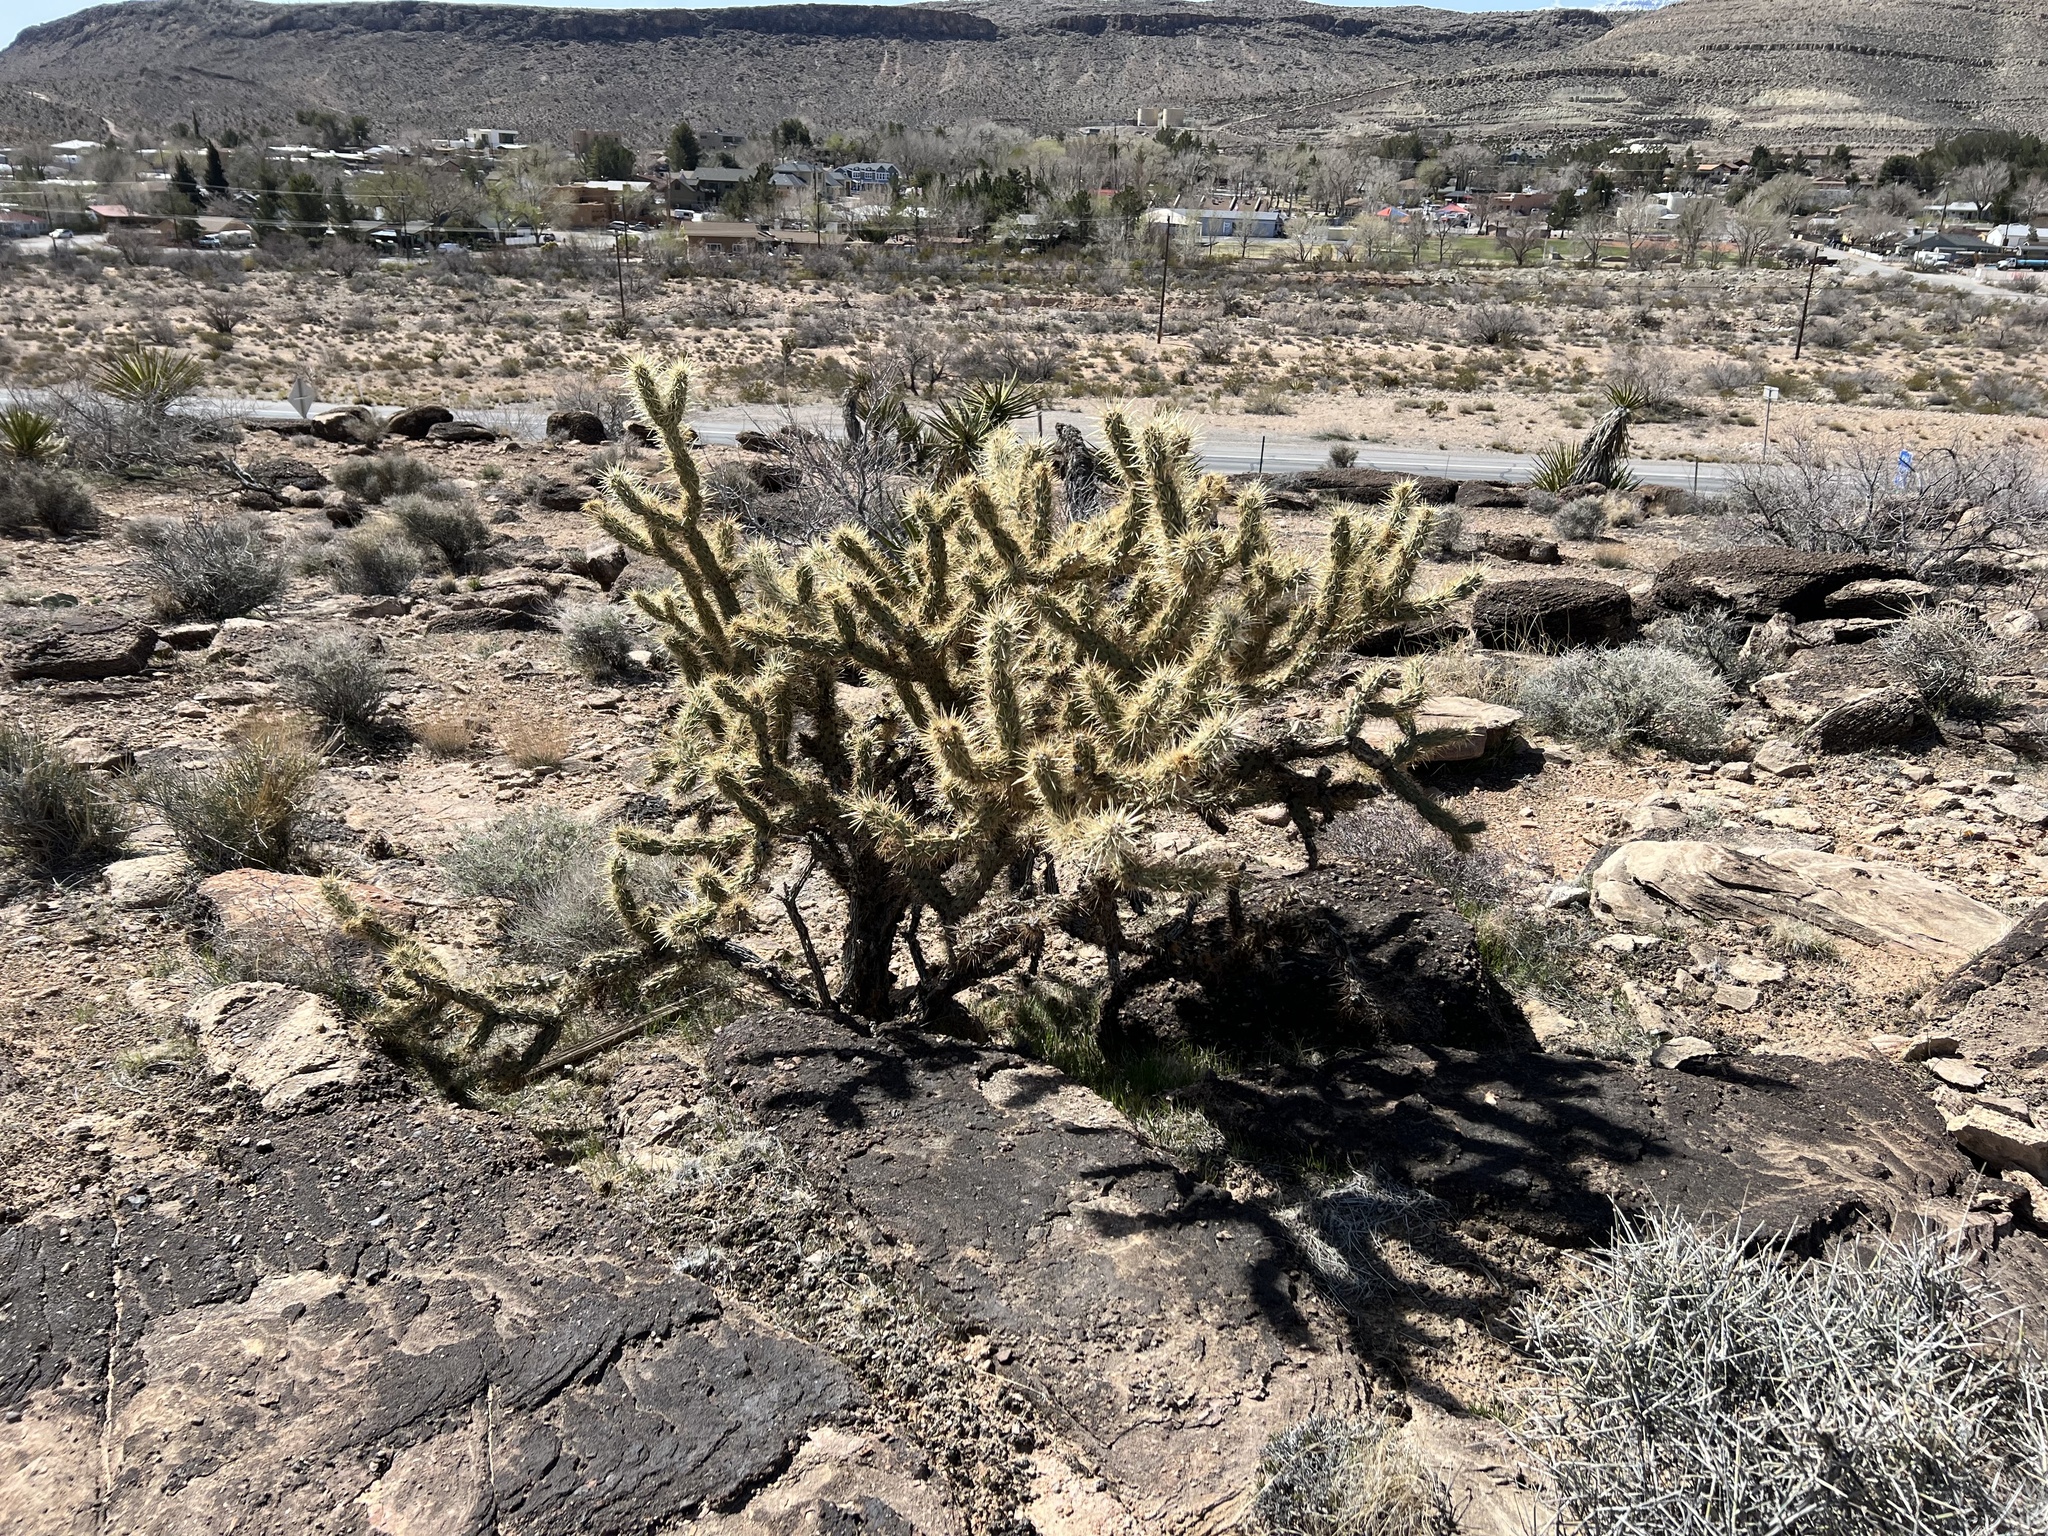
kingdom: Plantae
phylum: Tracheophyta
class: Magnoliopsida
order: Caryophyllales
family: Cactaceae
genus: Cylindropuntia
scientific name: Cylindropuntia acanthocarpa
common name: Buckhorn cholla
